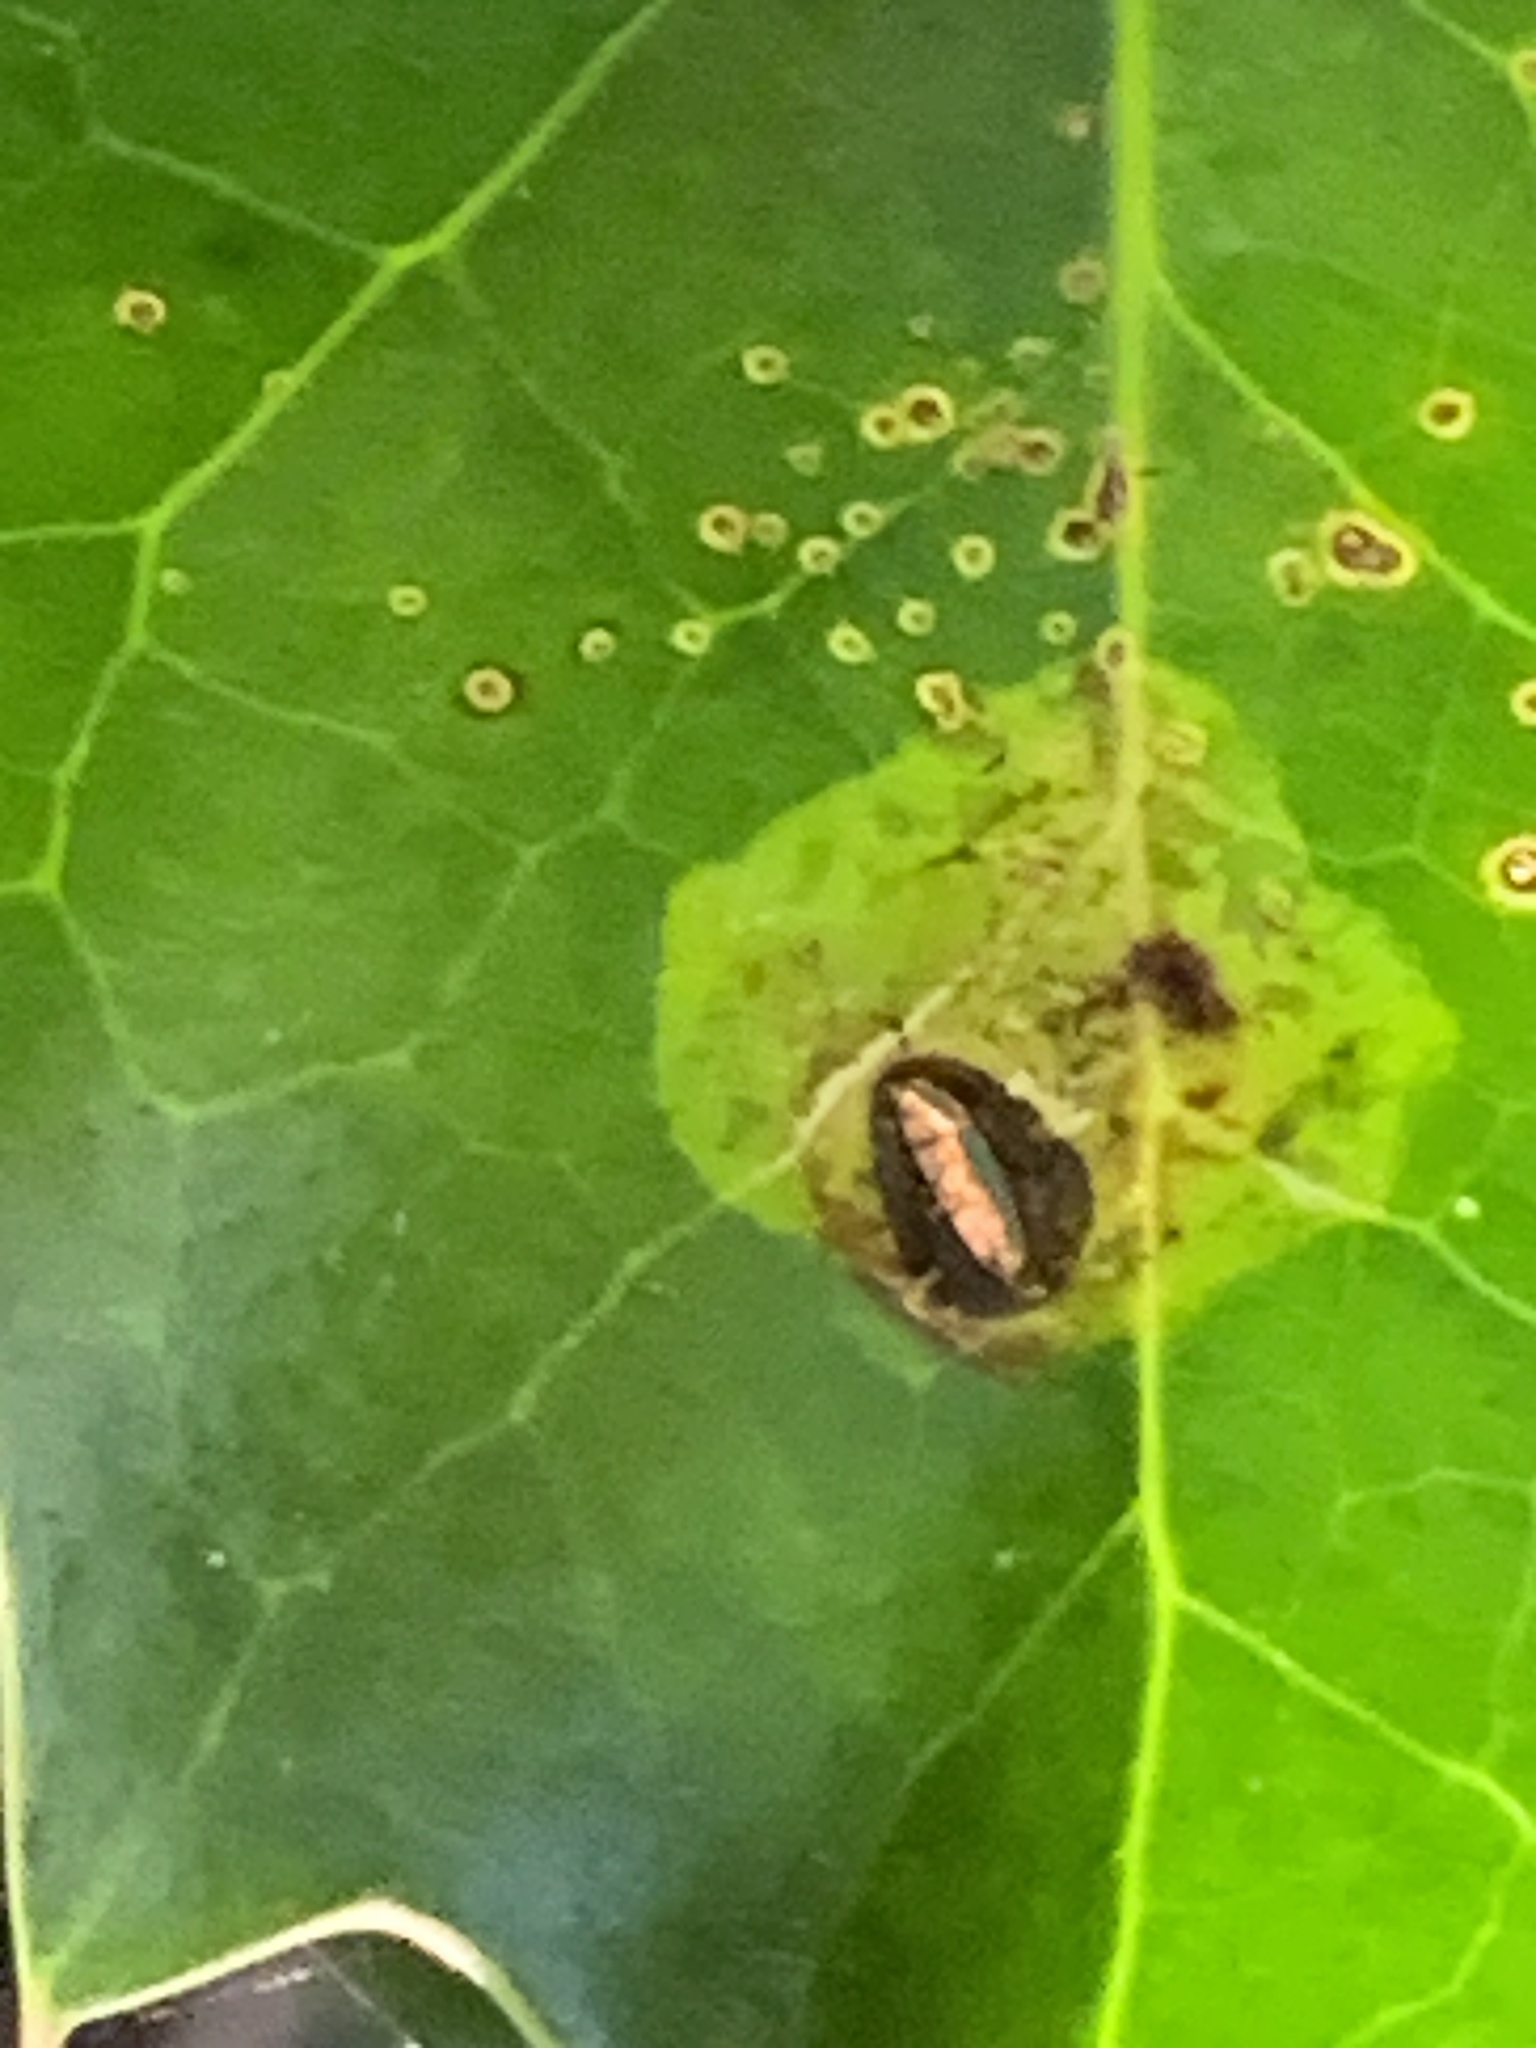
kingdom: Animalia
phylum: Arthropoda
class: Insecta
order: Diptera
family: Agromyzidae
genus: Phytomyza
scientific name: Phytomyza ilicis
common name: Holly leafminer
